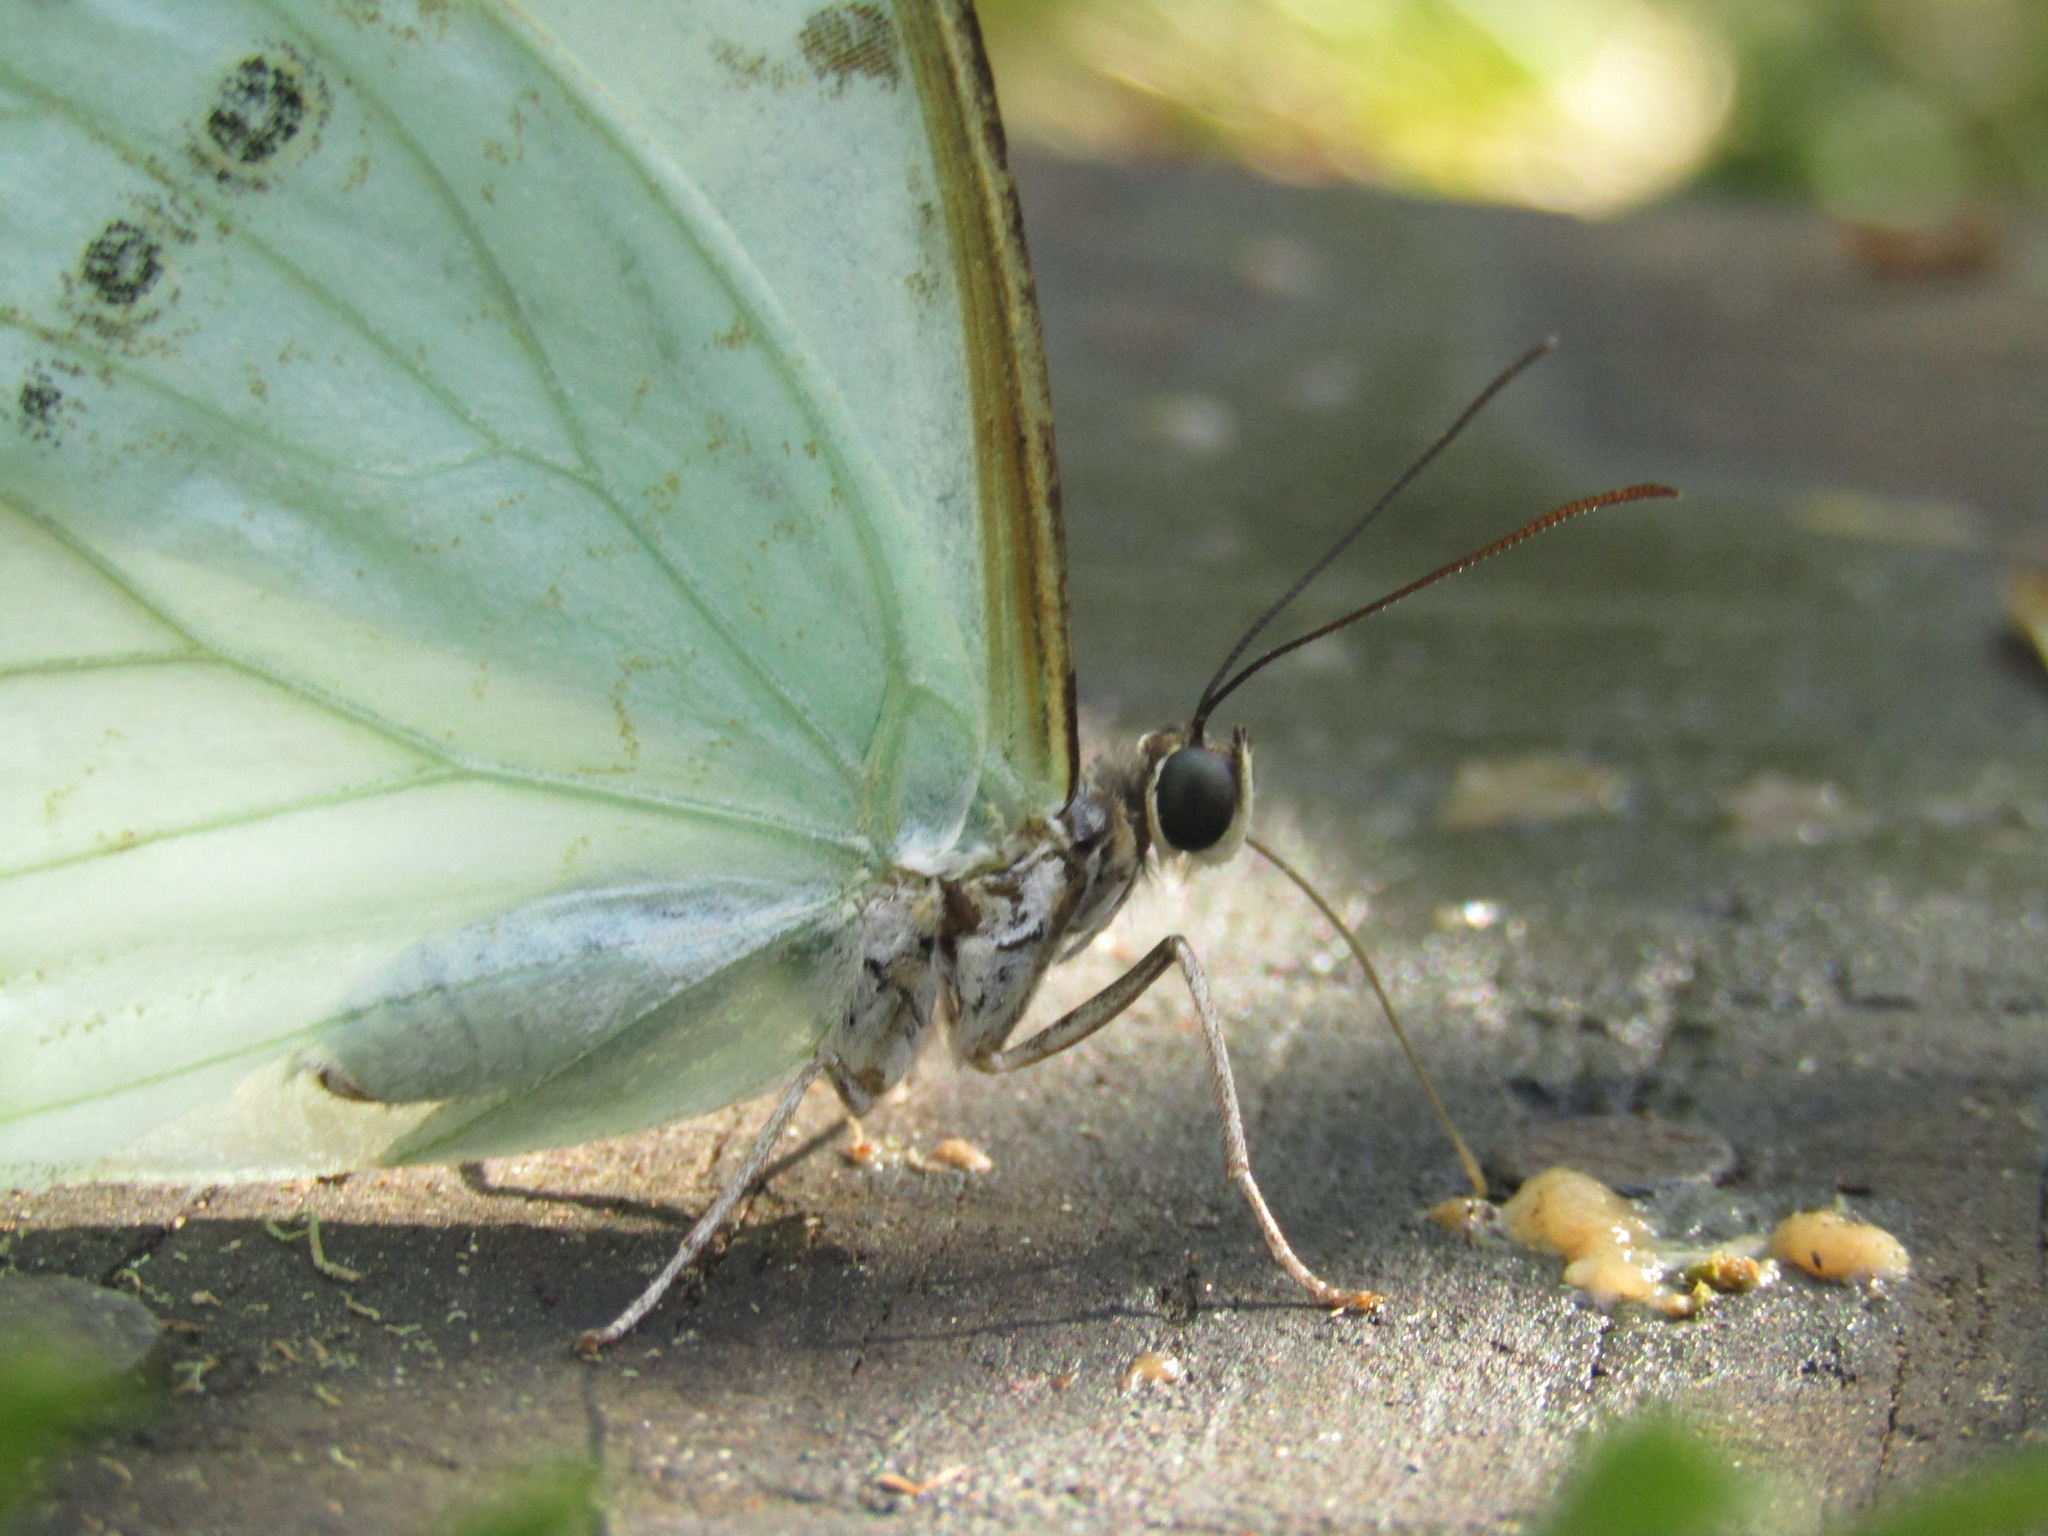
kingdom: Animalia
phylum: Arthropoda
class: Insecta
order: Lepidoptera
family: Nymphalidae
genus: Morpho
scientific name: Morpho epistrophus
